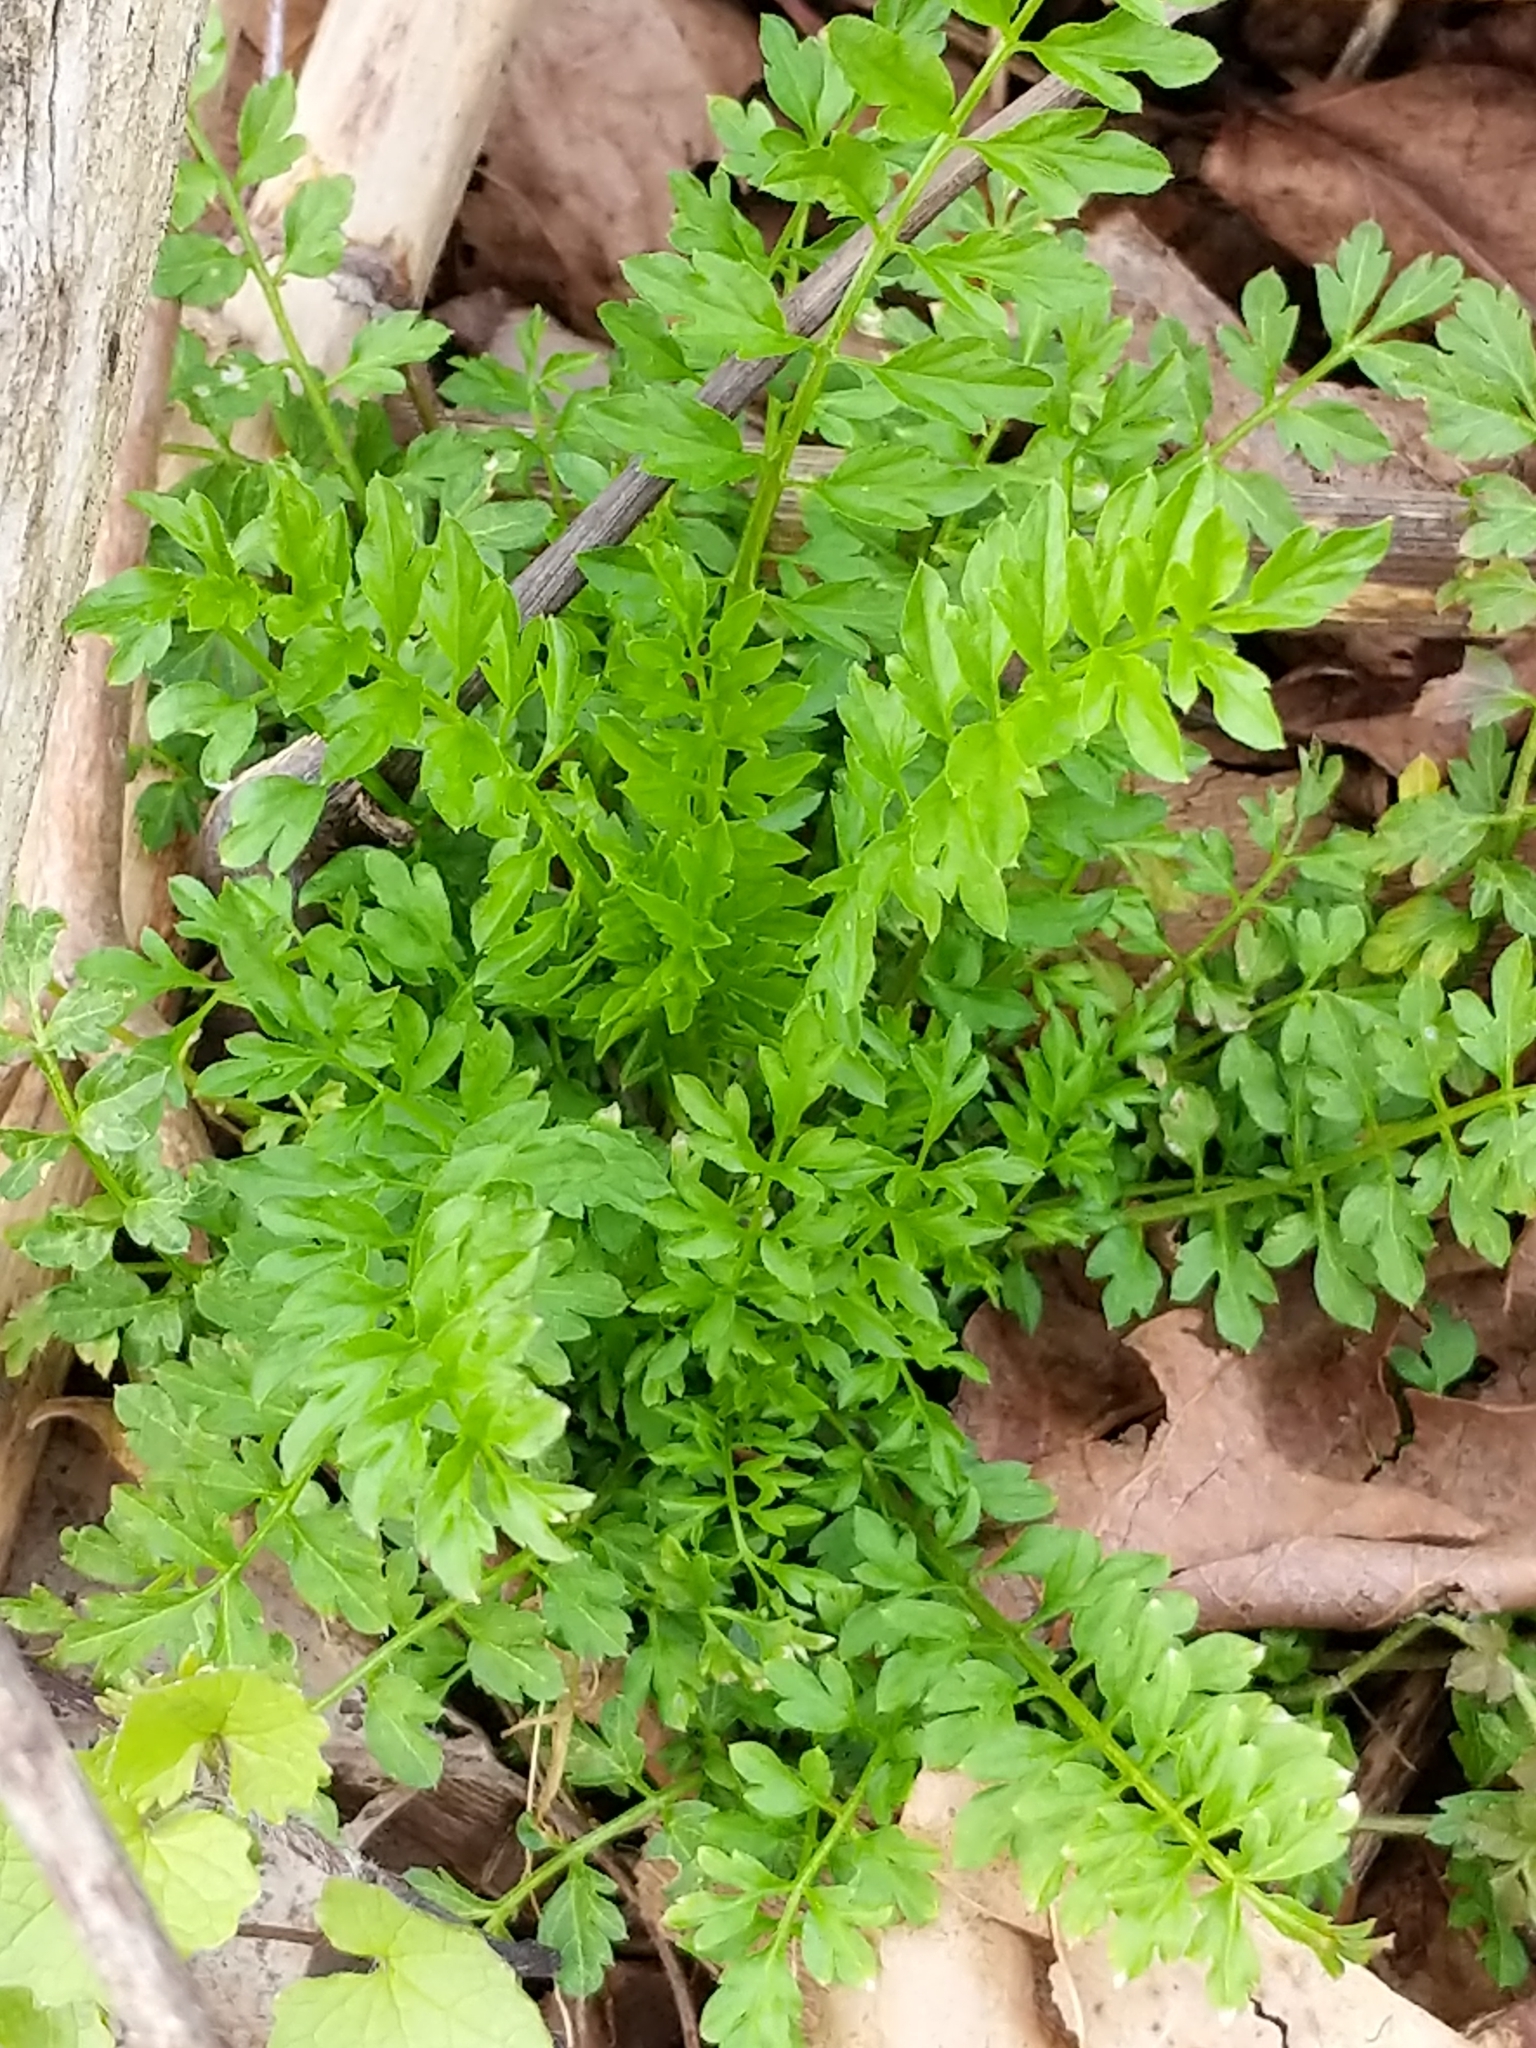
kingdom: Plantae
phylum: Tracheophyta
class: Magnoliopsida
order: Brassicales
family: Brassicaceae
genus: Cardamine
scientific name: Cardamine impatiens
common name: Narrow-leaved bitter-cress
